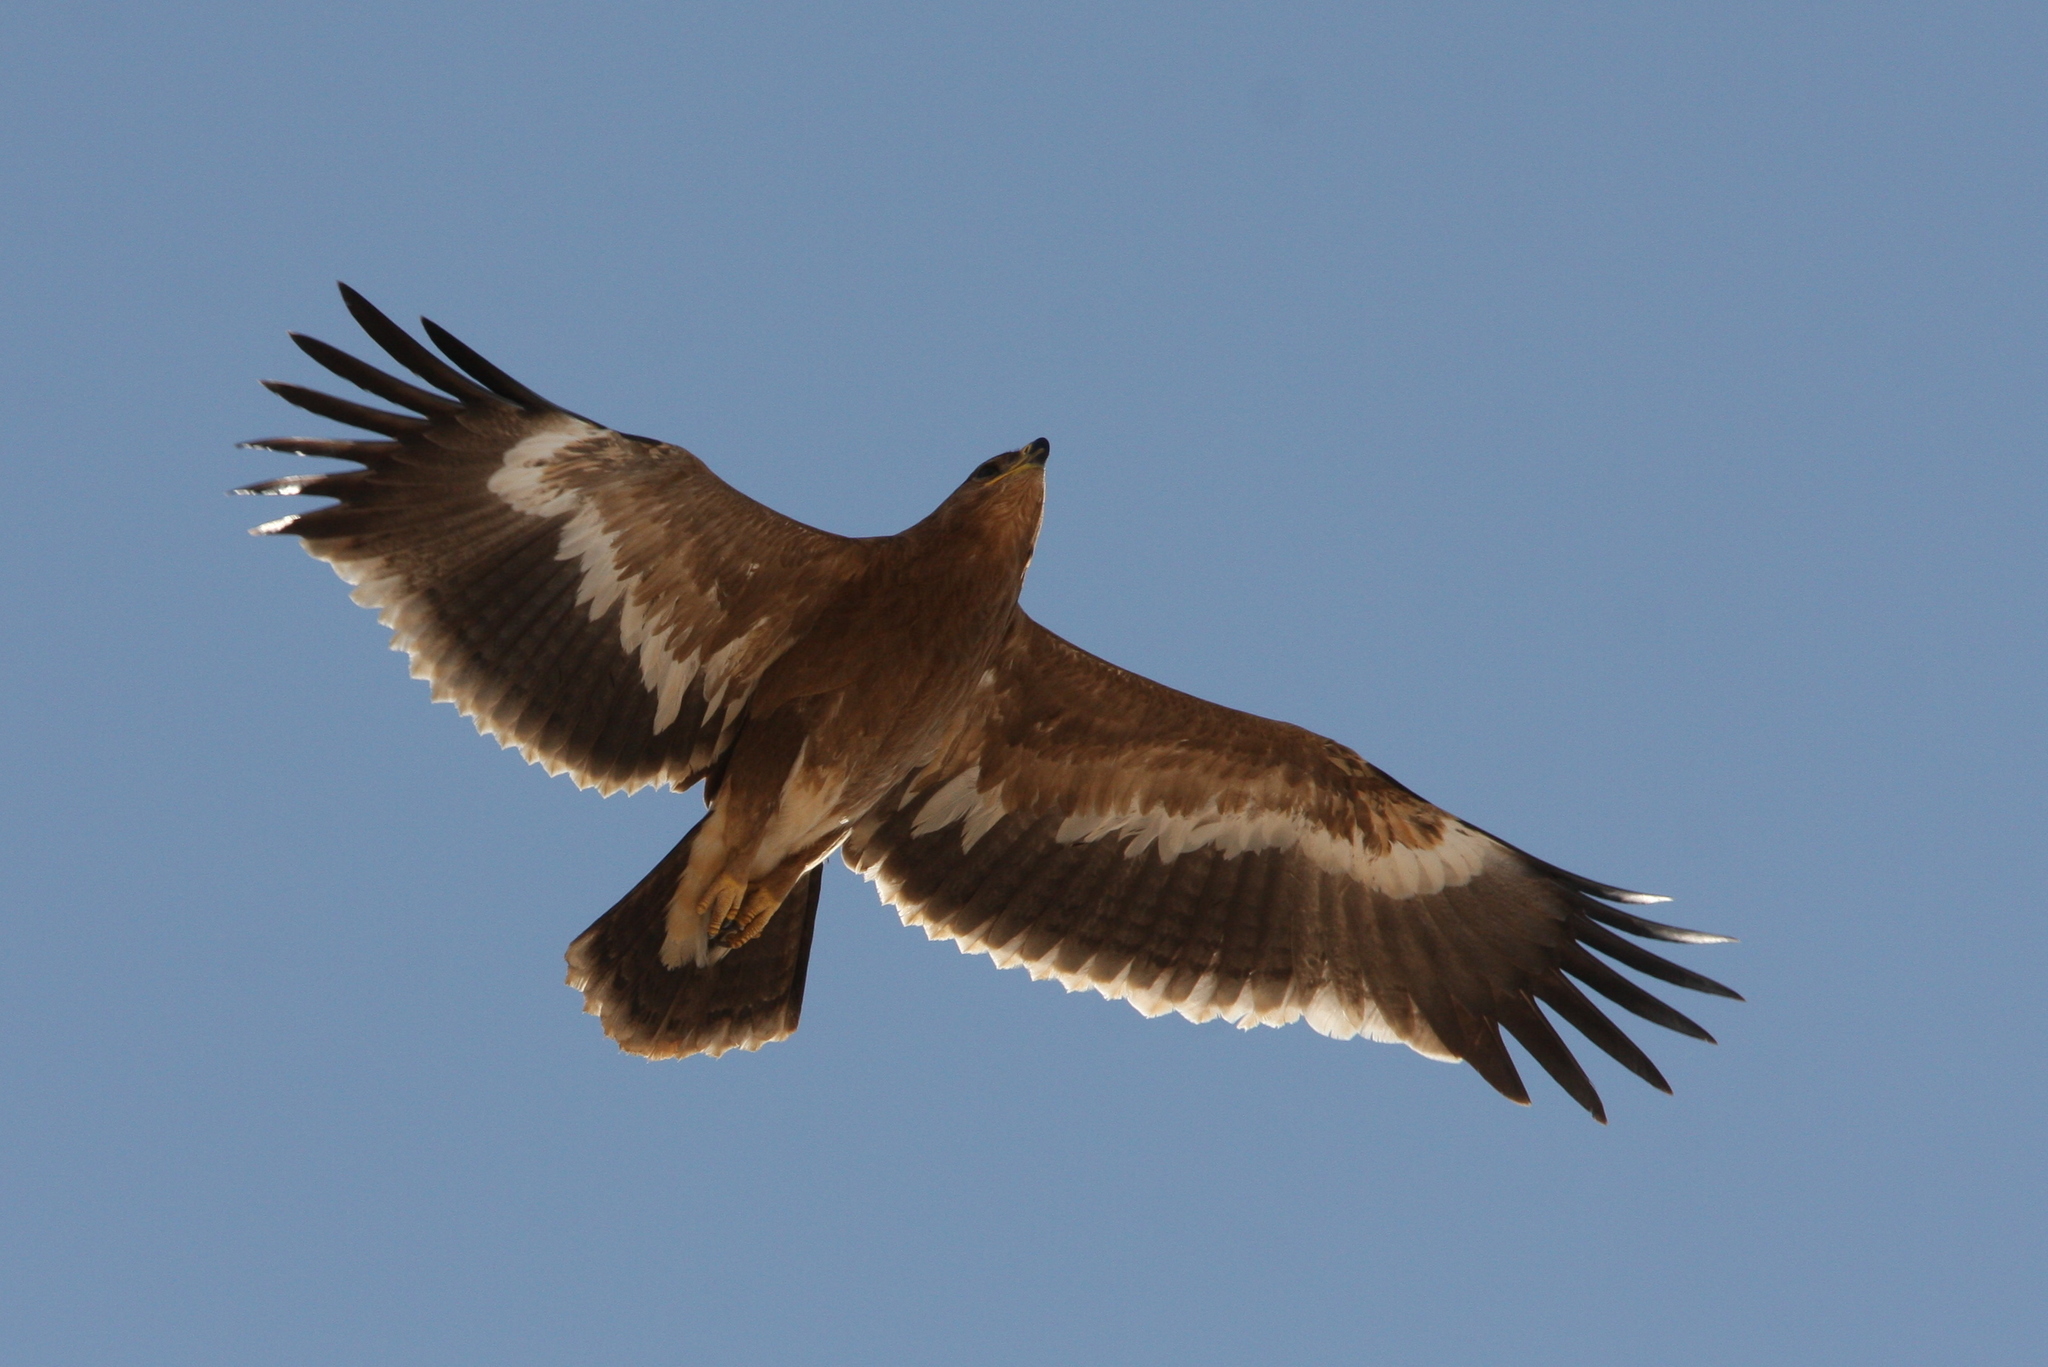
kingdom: Animalia
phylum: Chordata
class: Aves
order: Accipitriformes
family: Accipitridae
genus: Aquila
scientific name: Aquila nipalensis
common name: Steppe eagle
